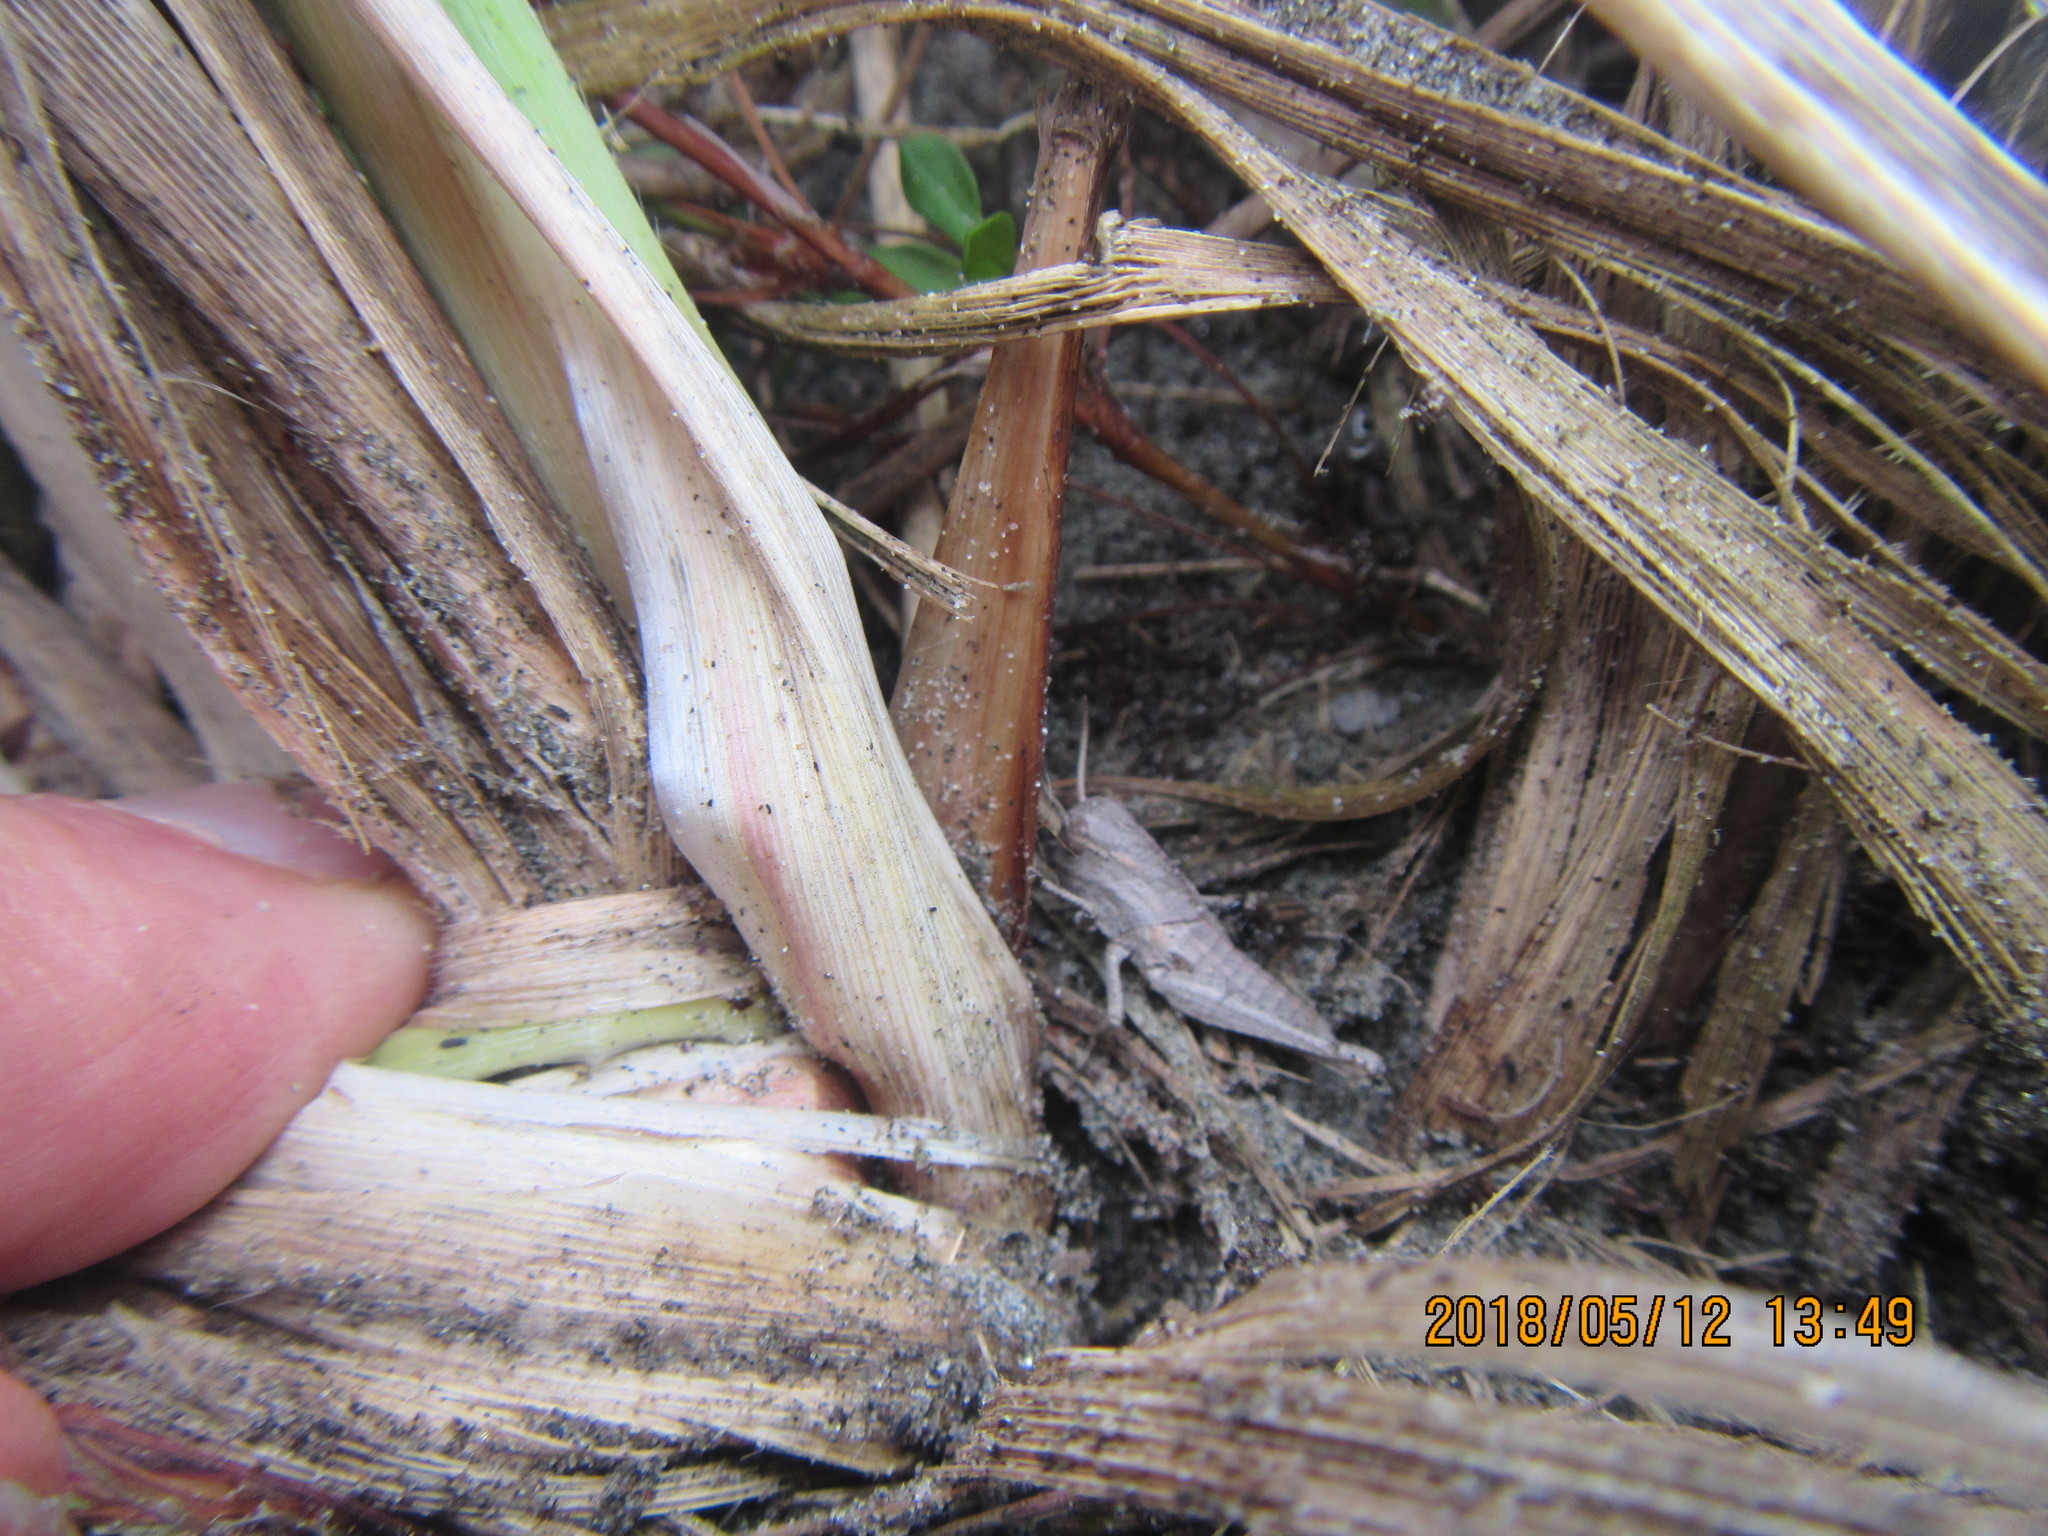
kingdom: Animalia
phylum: Arthropoda
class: Insecta
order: Orthoptera
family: Acrididae
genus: Locusta
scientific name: Locusta migratoria
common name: Migratory locust
